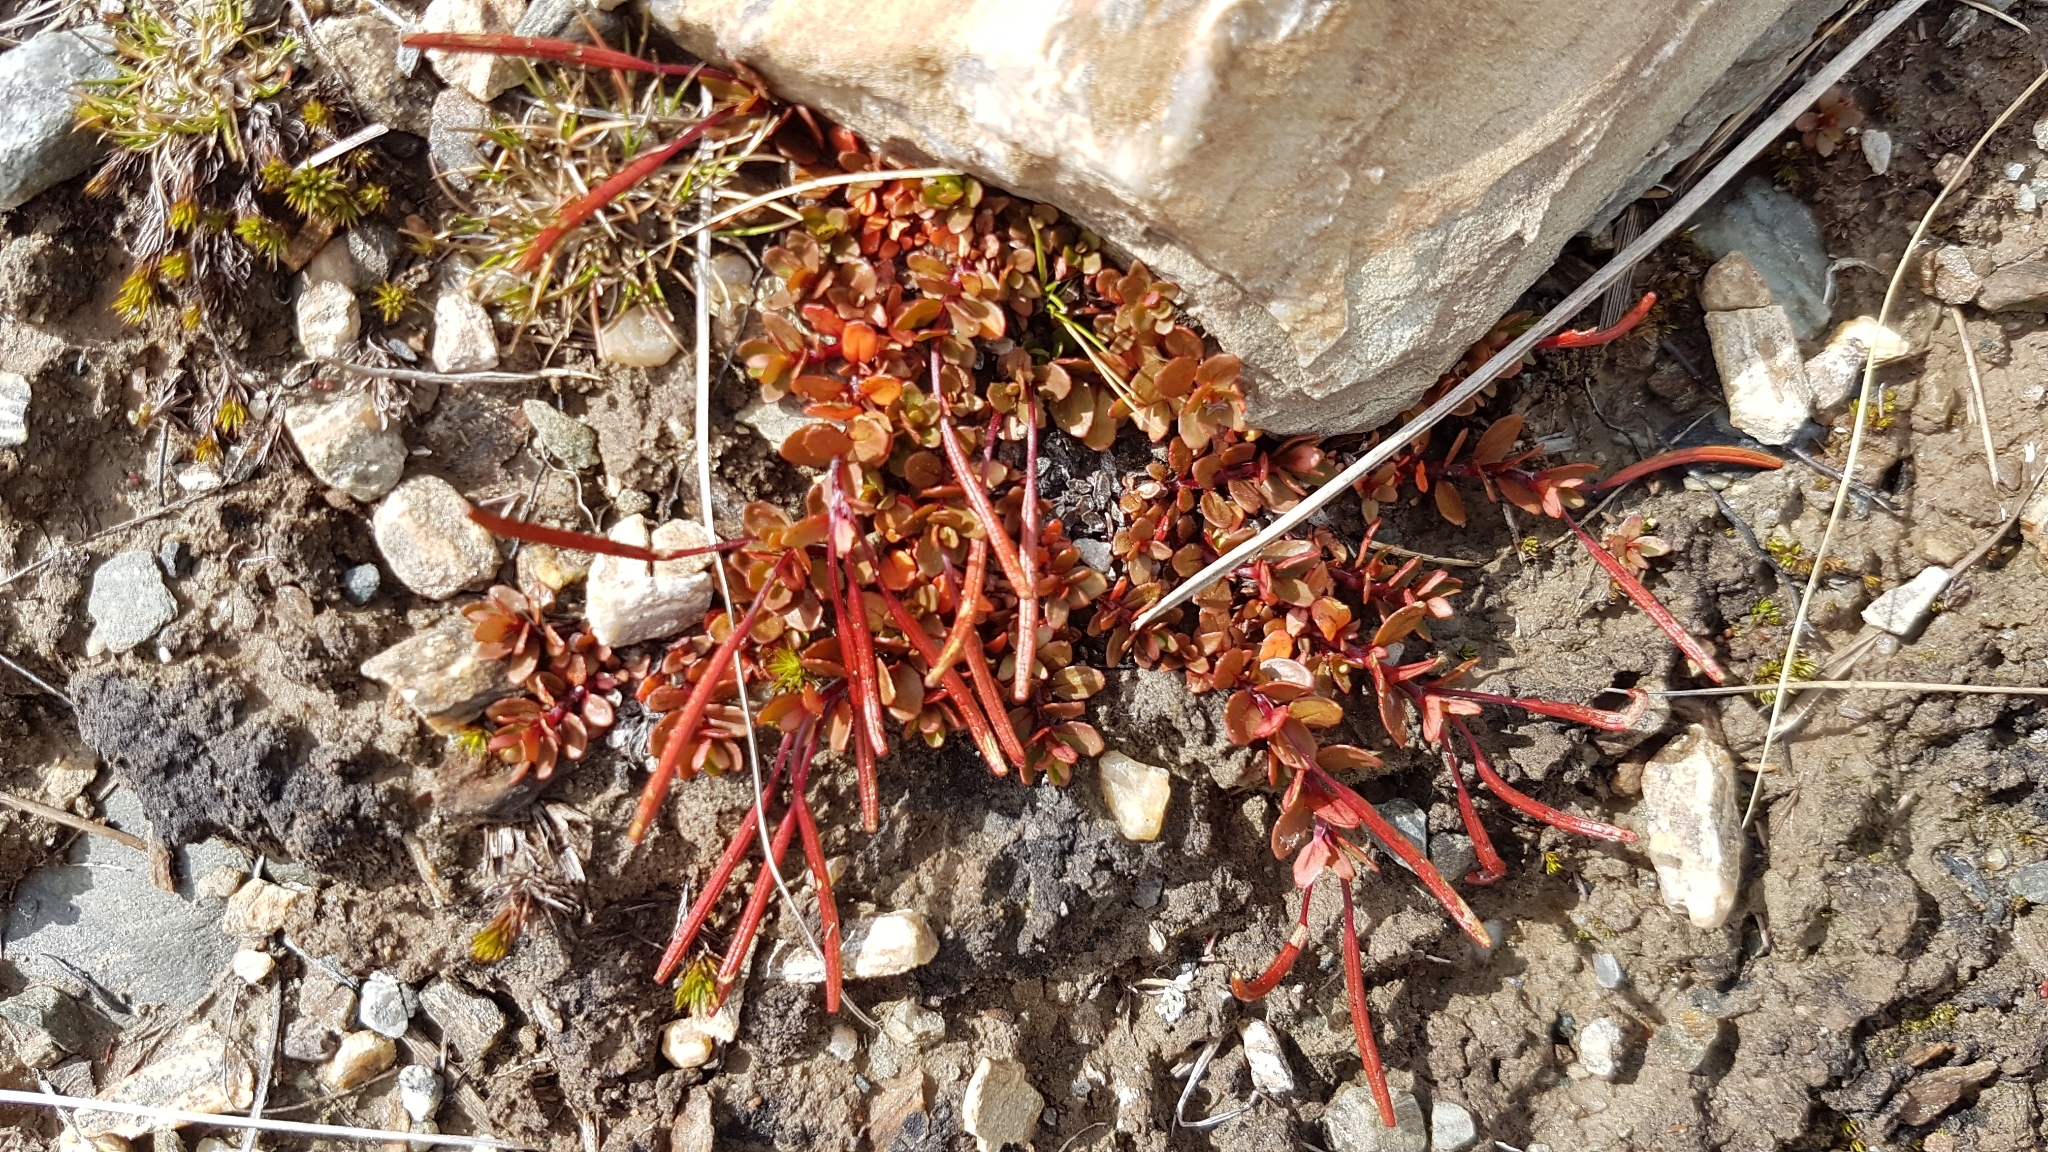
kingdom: Plantae
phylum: Tracheophyta
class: Magnoliopsida
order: Myrtales
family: Onagraceae
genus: Epilobium
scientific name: Epilobium tasmanicum
